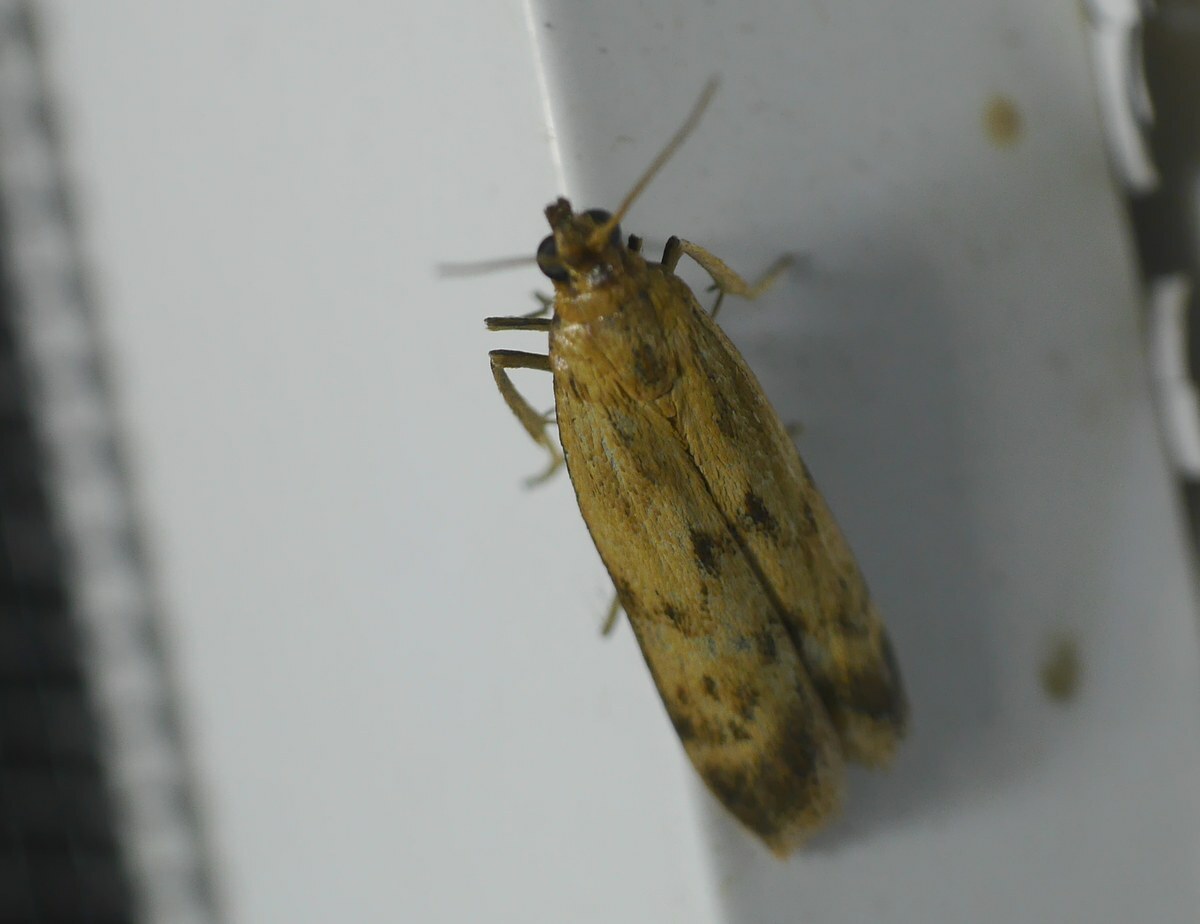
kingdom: Animalia
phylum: Arthropoda
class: Insecta
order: Lepidoptera
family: Pyralidae
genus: Homoeosoma
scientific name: Homoeosoma sinuella
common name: Twin-barred knot-horn
